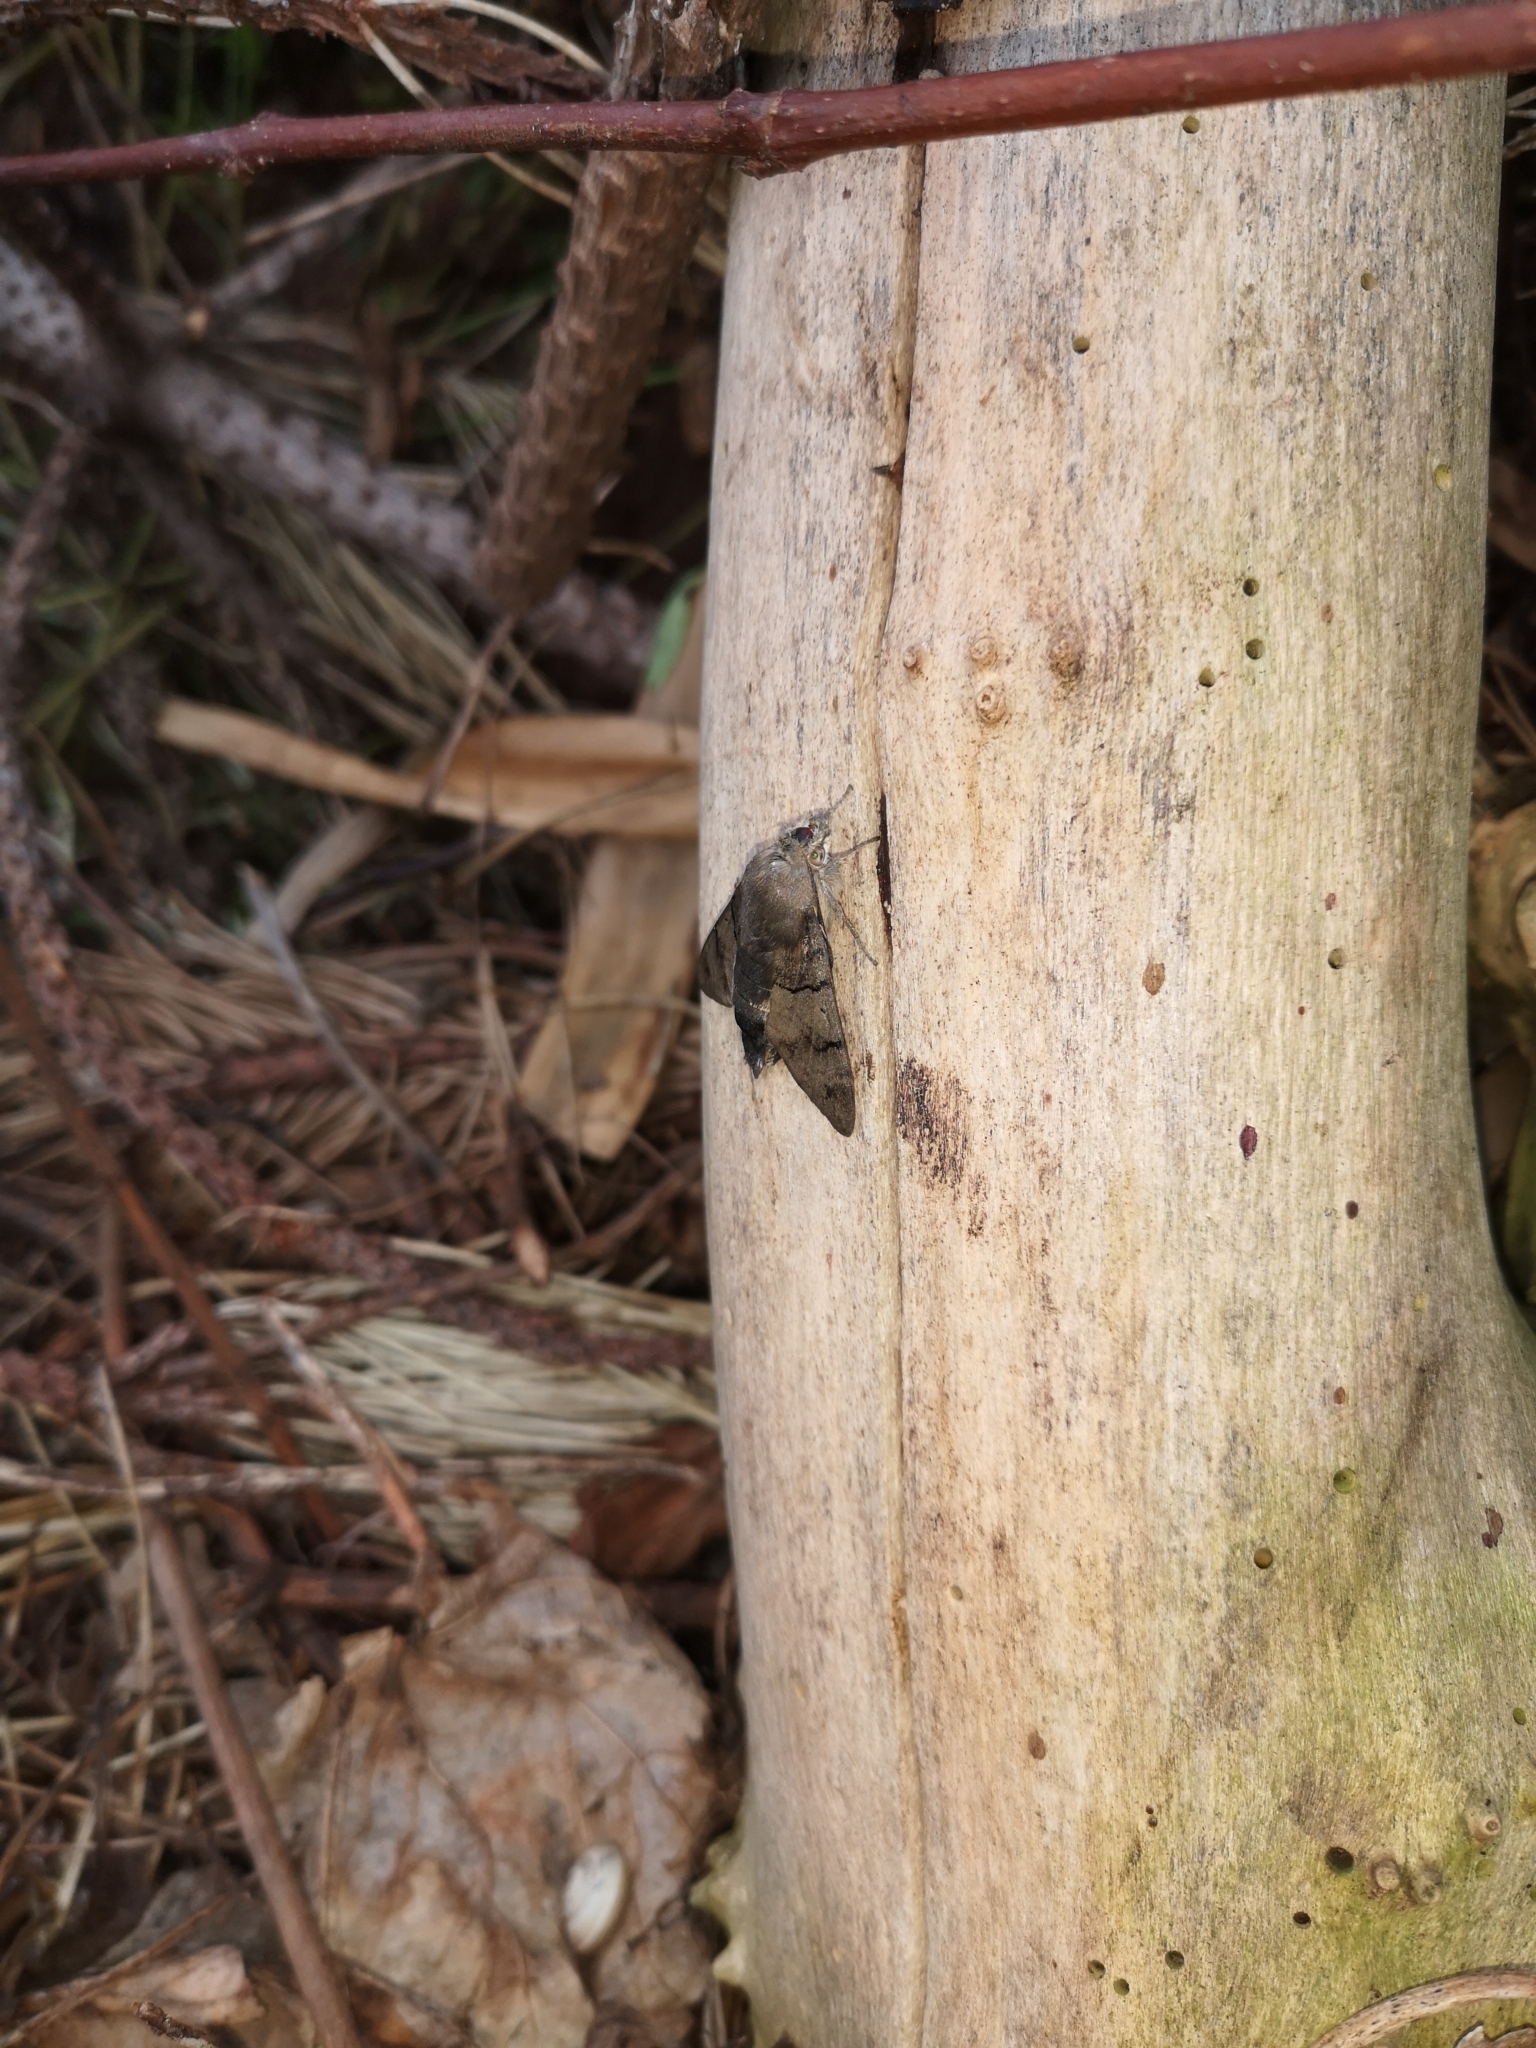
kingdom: Animalia
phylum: Arthropoda
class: Insecta
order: Lepidoptera
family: Sphingidae
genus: Macroglossum
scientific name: Macroglossum stellatarum
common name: Humming-bird hawk-moth
